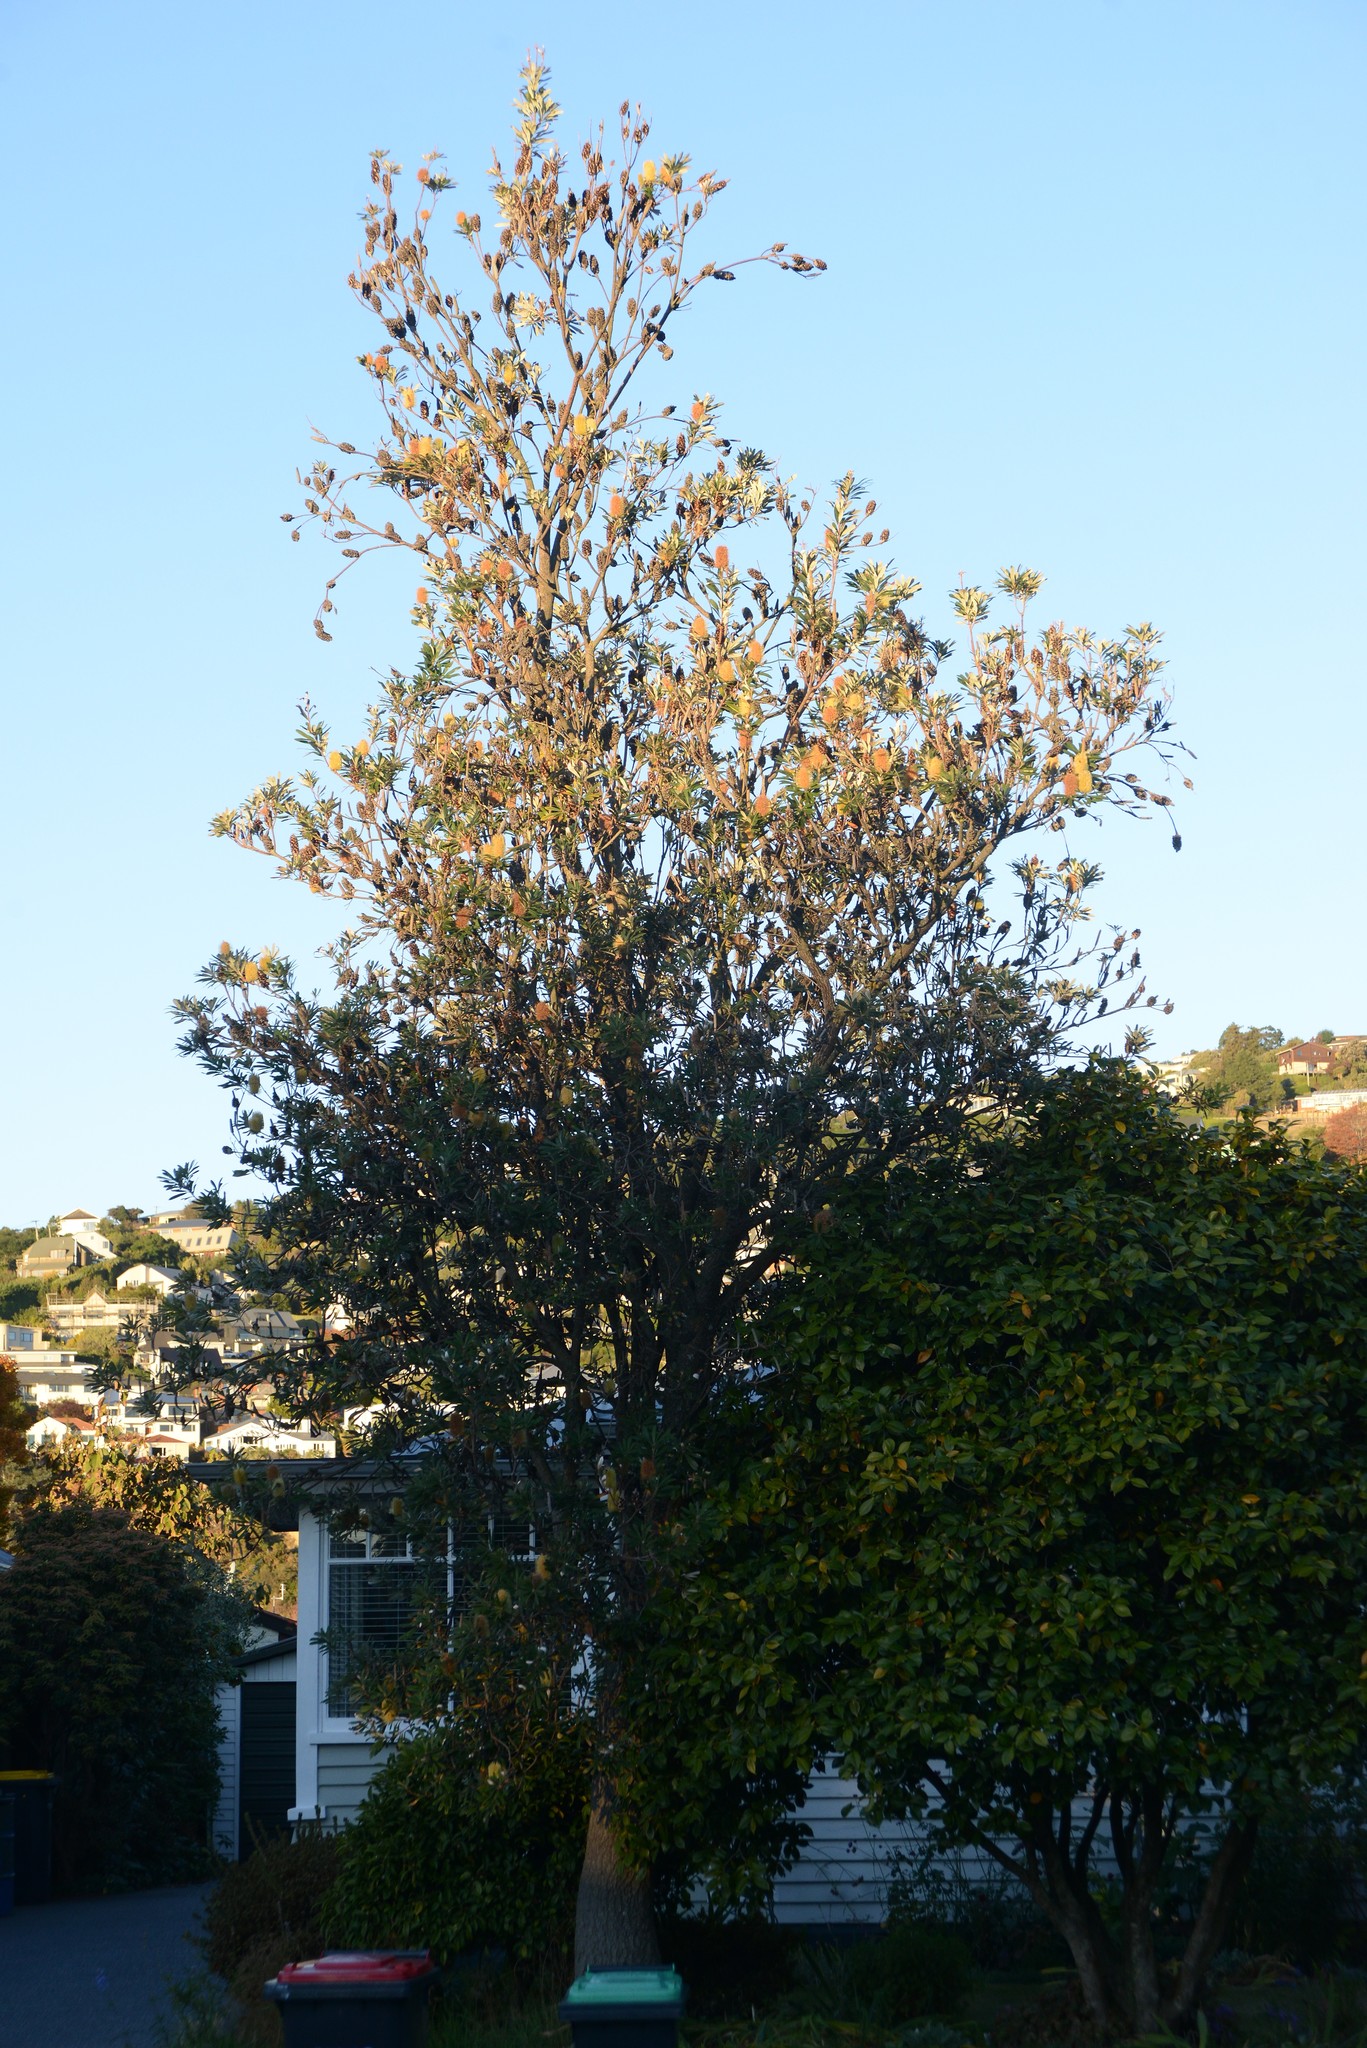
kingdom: Plantae
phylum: Tracheophyta
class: Magnoliopsida
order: Proteales
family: Proteaceae
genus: Banksia
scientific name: Banksia integrifolia
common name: White-honeysuckle
